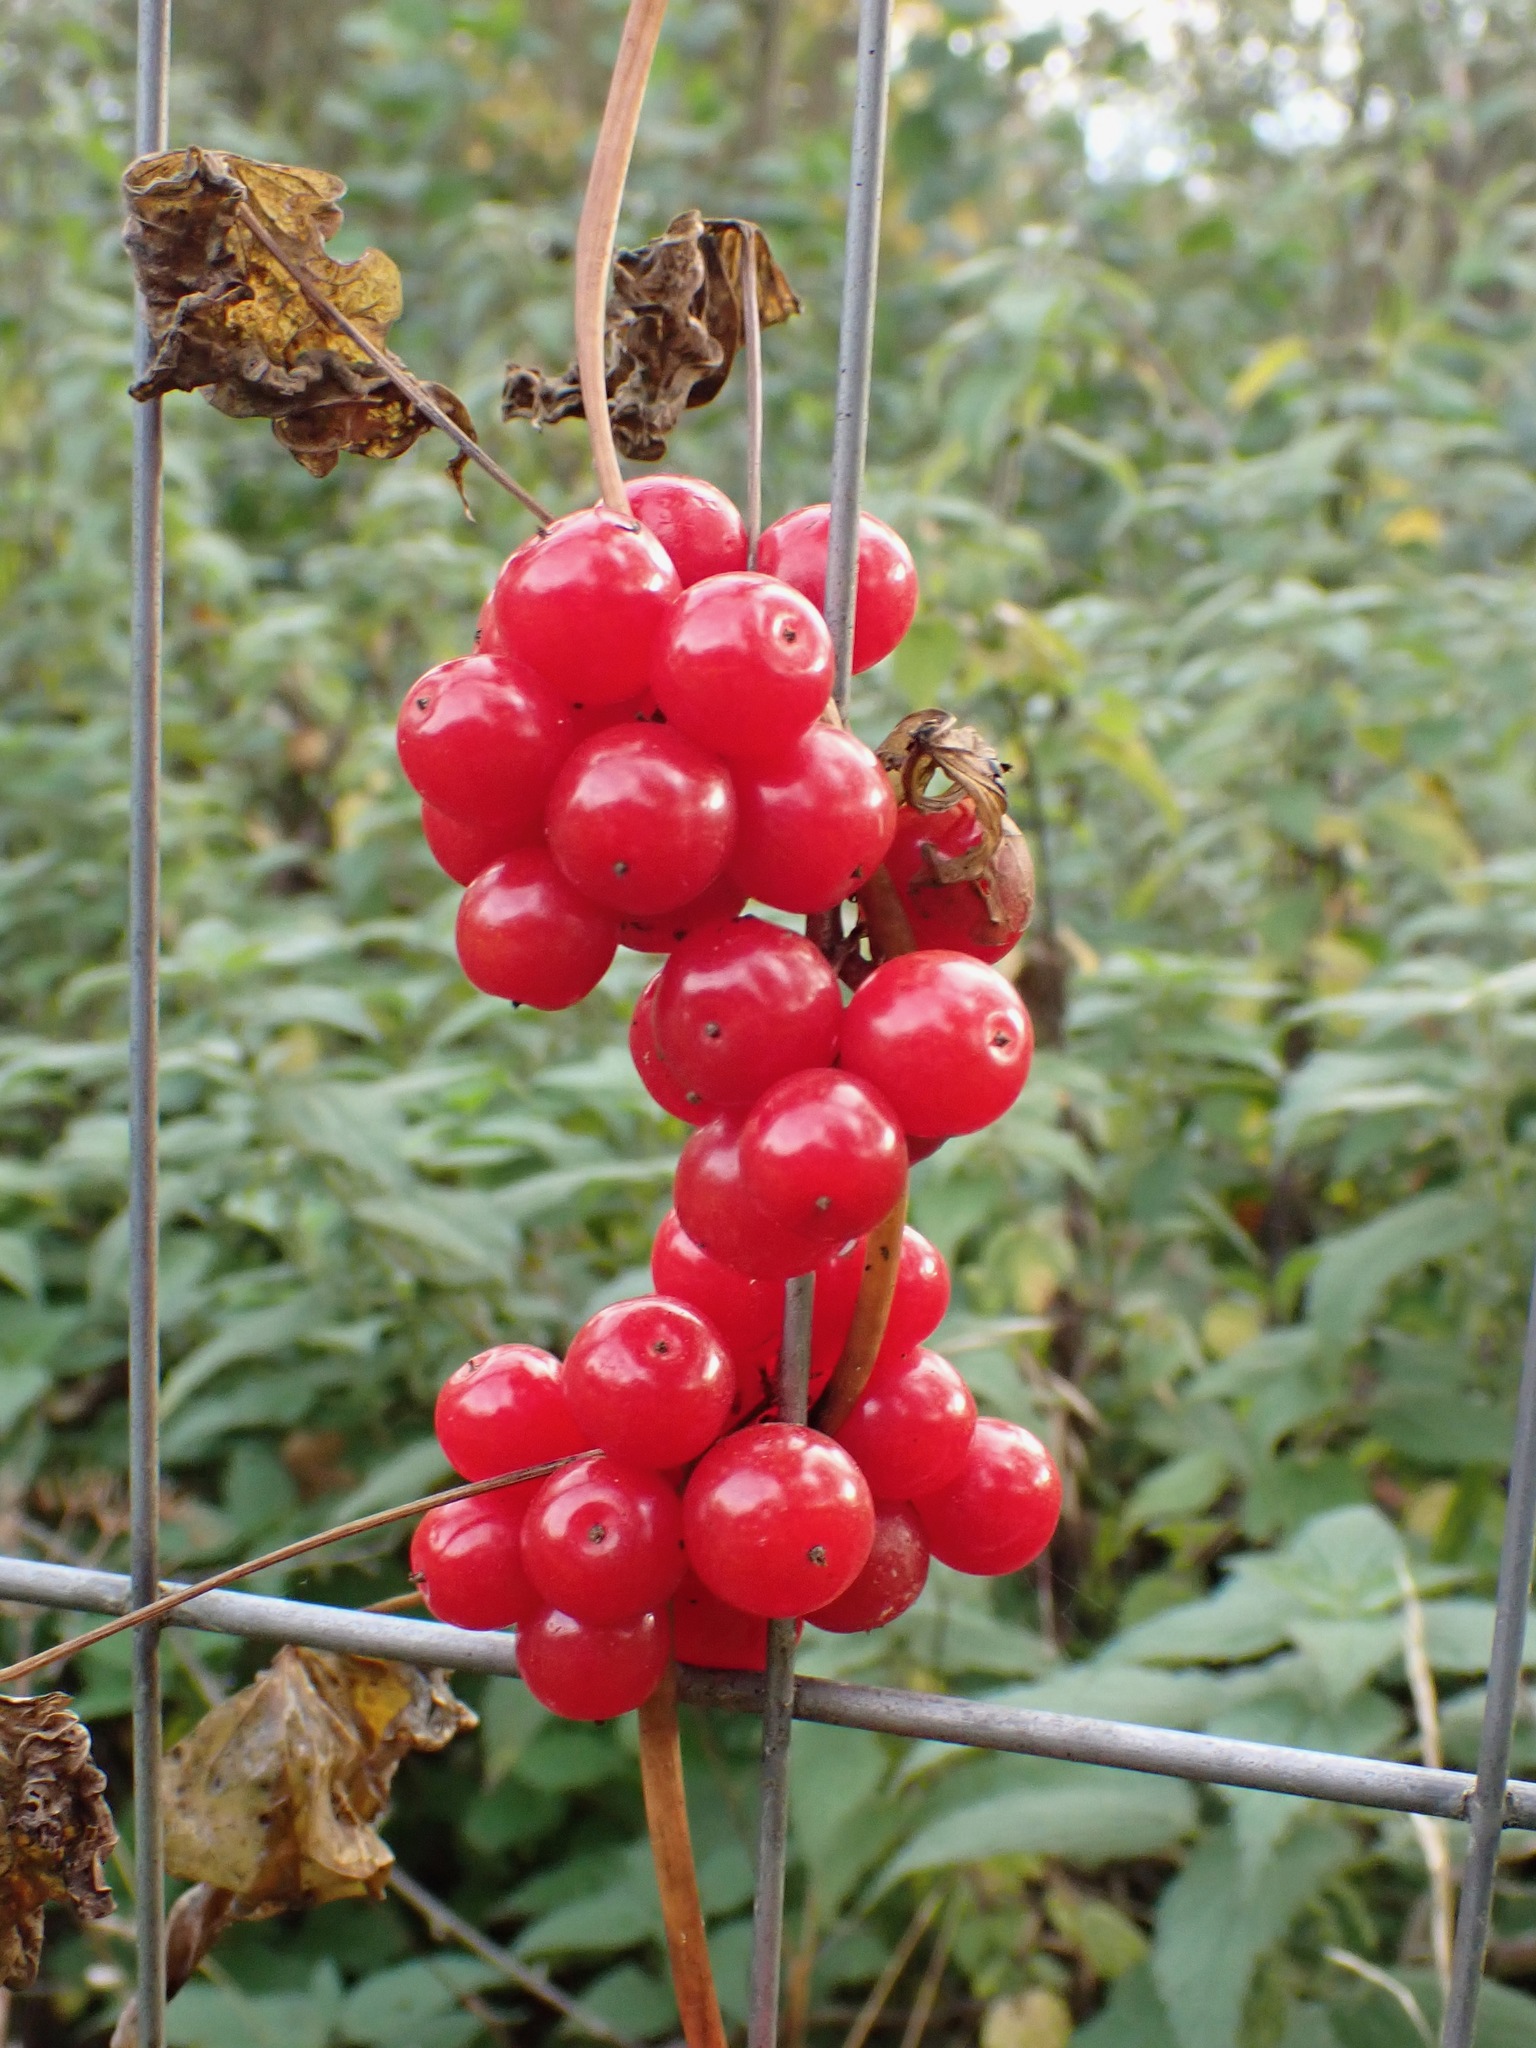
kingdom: Plantae
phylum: Tracheophyta
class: Liliopsida
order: Dioscoreales
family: Dioscoreaceae
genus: Dioscorea
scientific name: Dioscorea communis
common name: Black-bindweed
